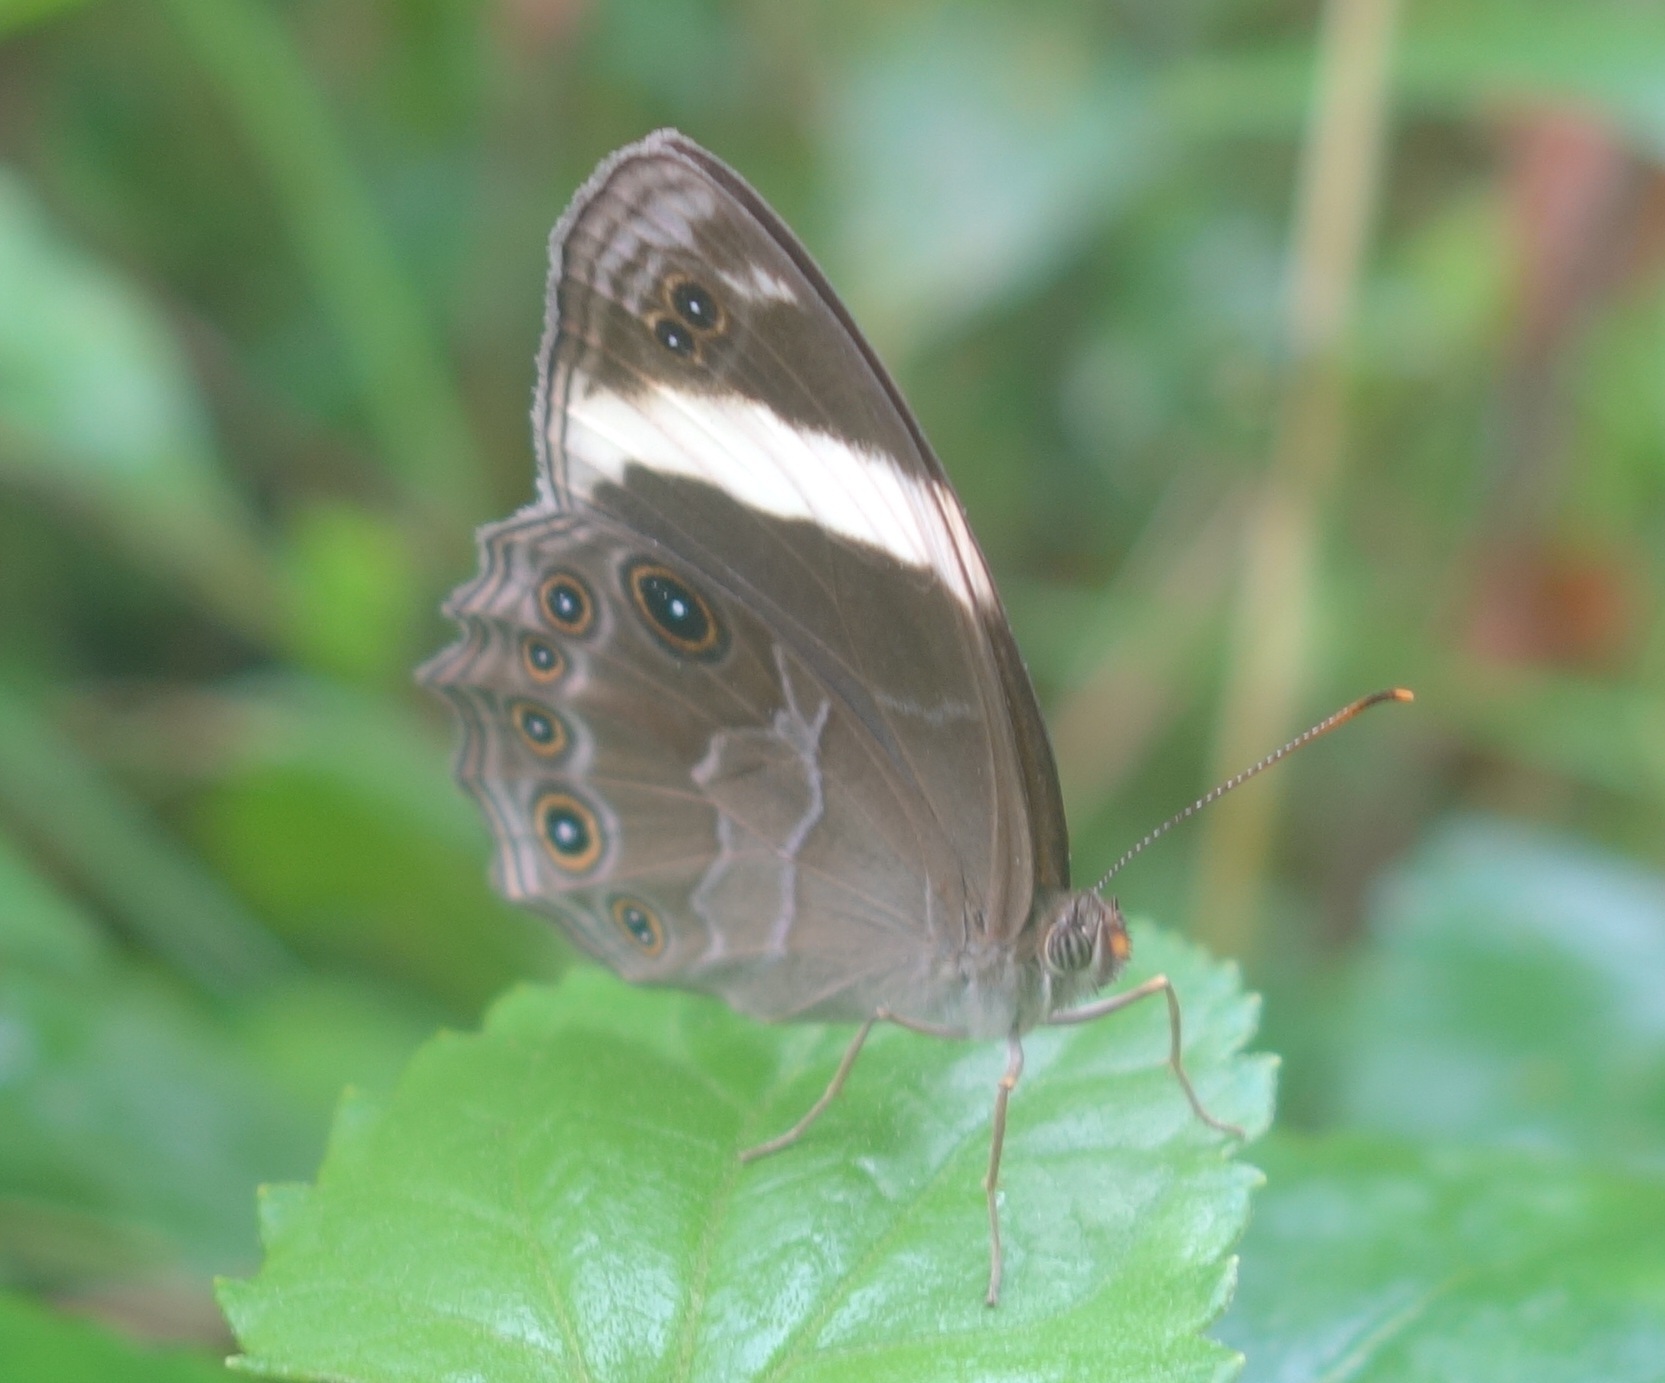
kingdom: Animalia
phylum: Arthropoda
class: Insecta
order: Lepidoptera
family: Nymphalidae
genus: Lethe
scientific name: Lethe verma
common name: Straight-banded treebrown
